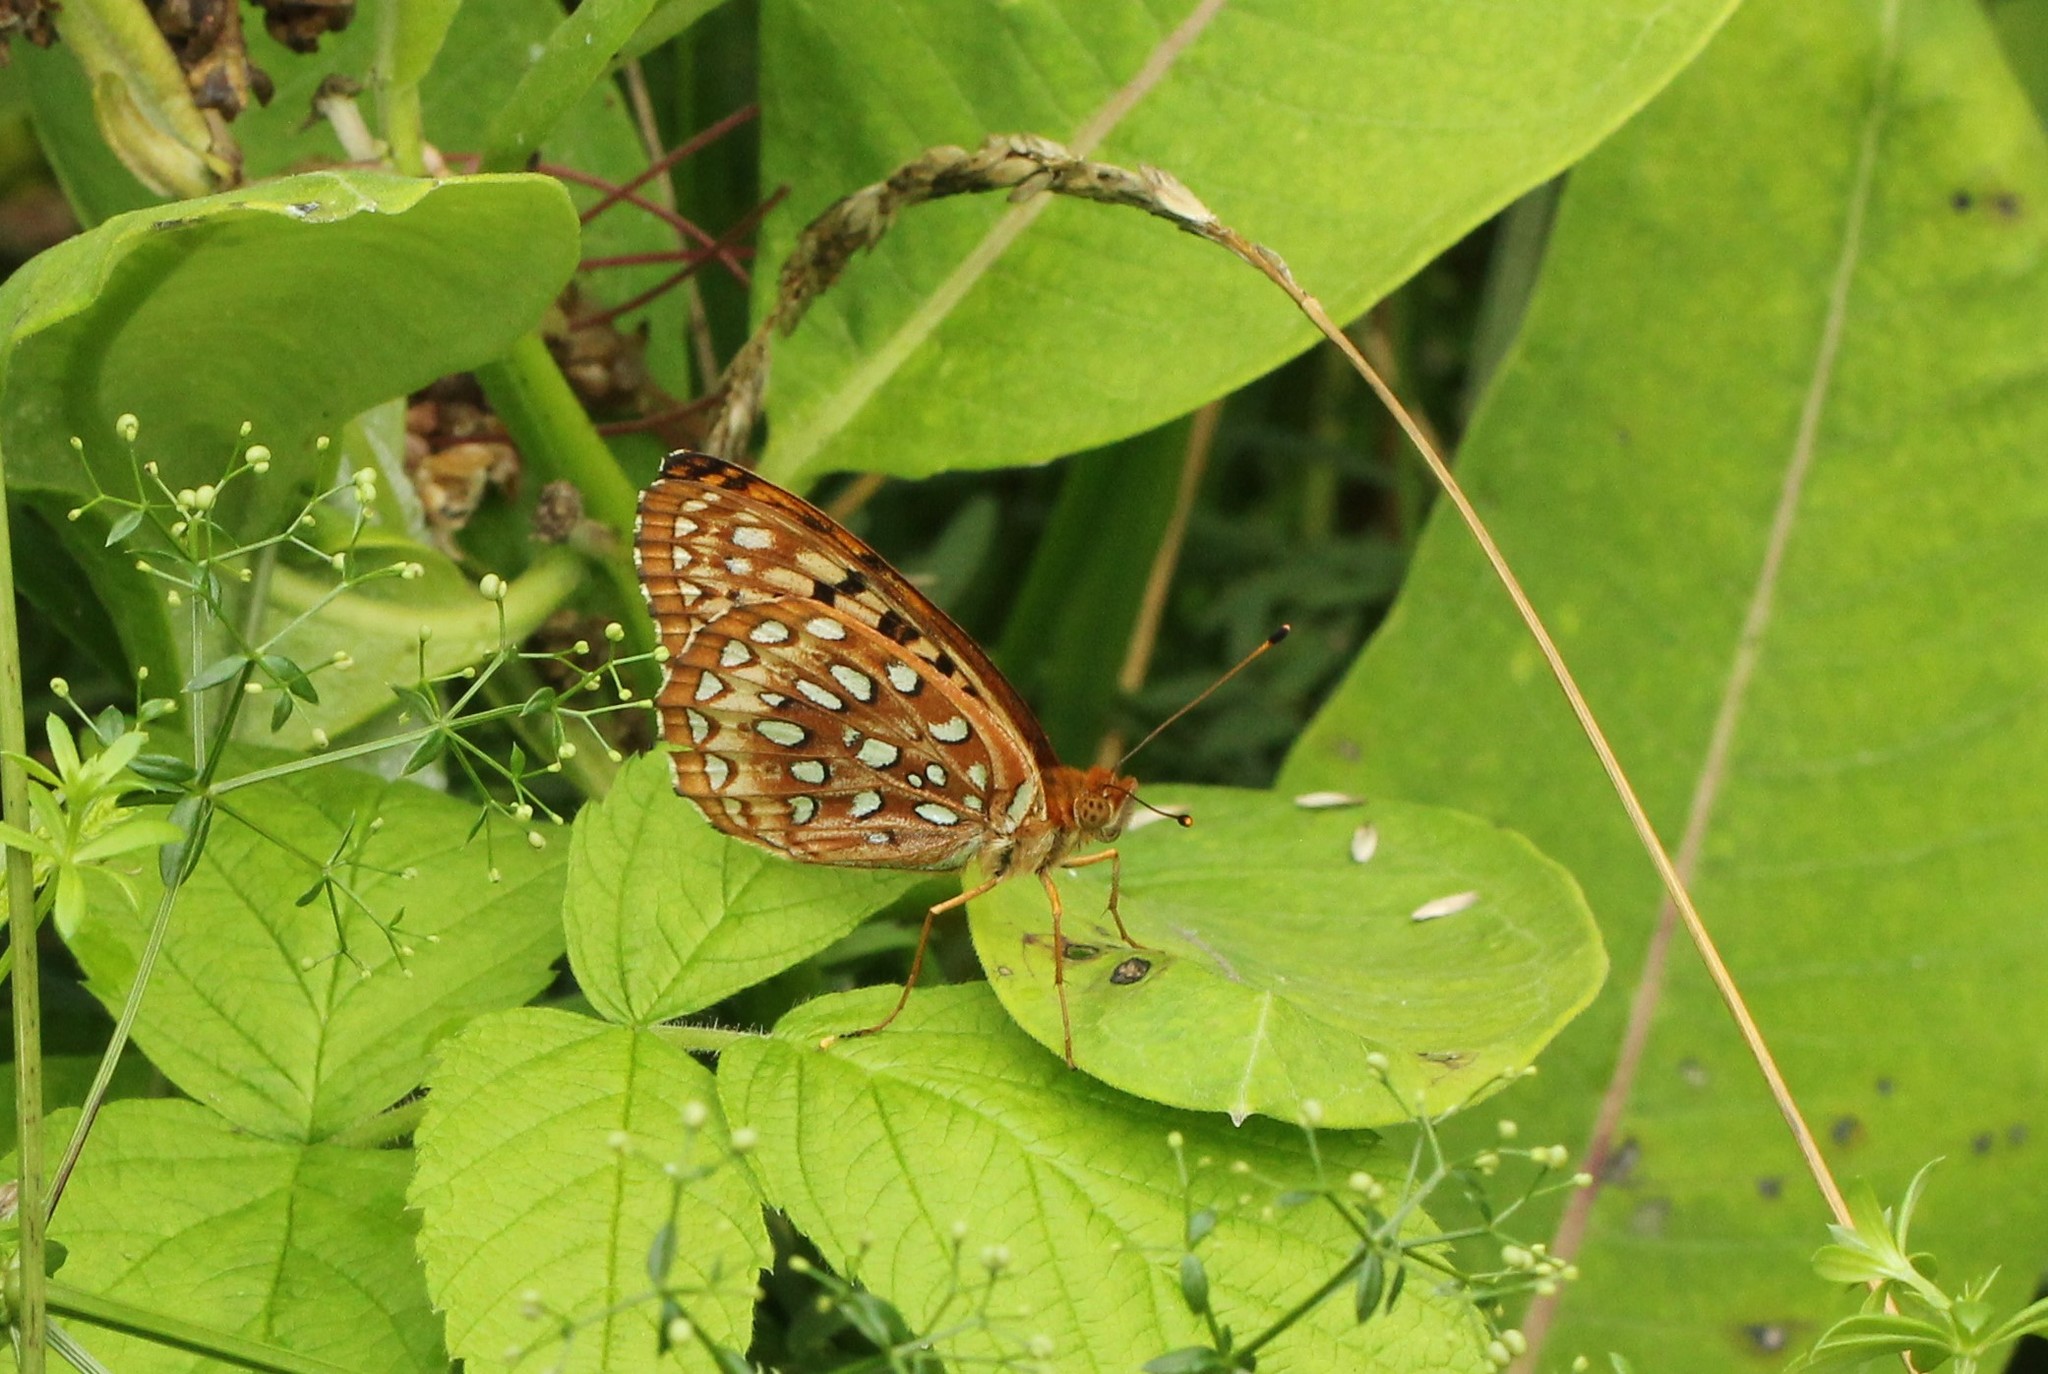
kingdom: Animalia
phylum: Arthropoda
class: Insecta
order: Lepidoptera
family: Nymphalidae
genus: Speyeria
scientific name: Speyeria aphrodite
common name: Aphrodite friitllary
